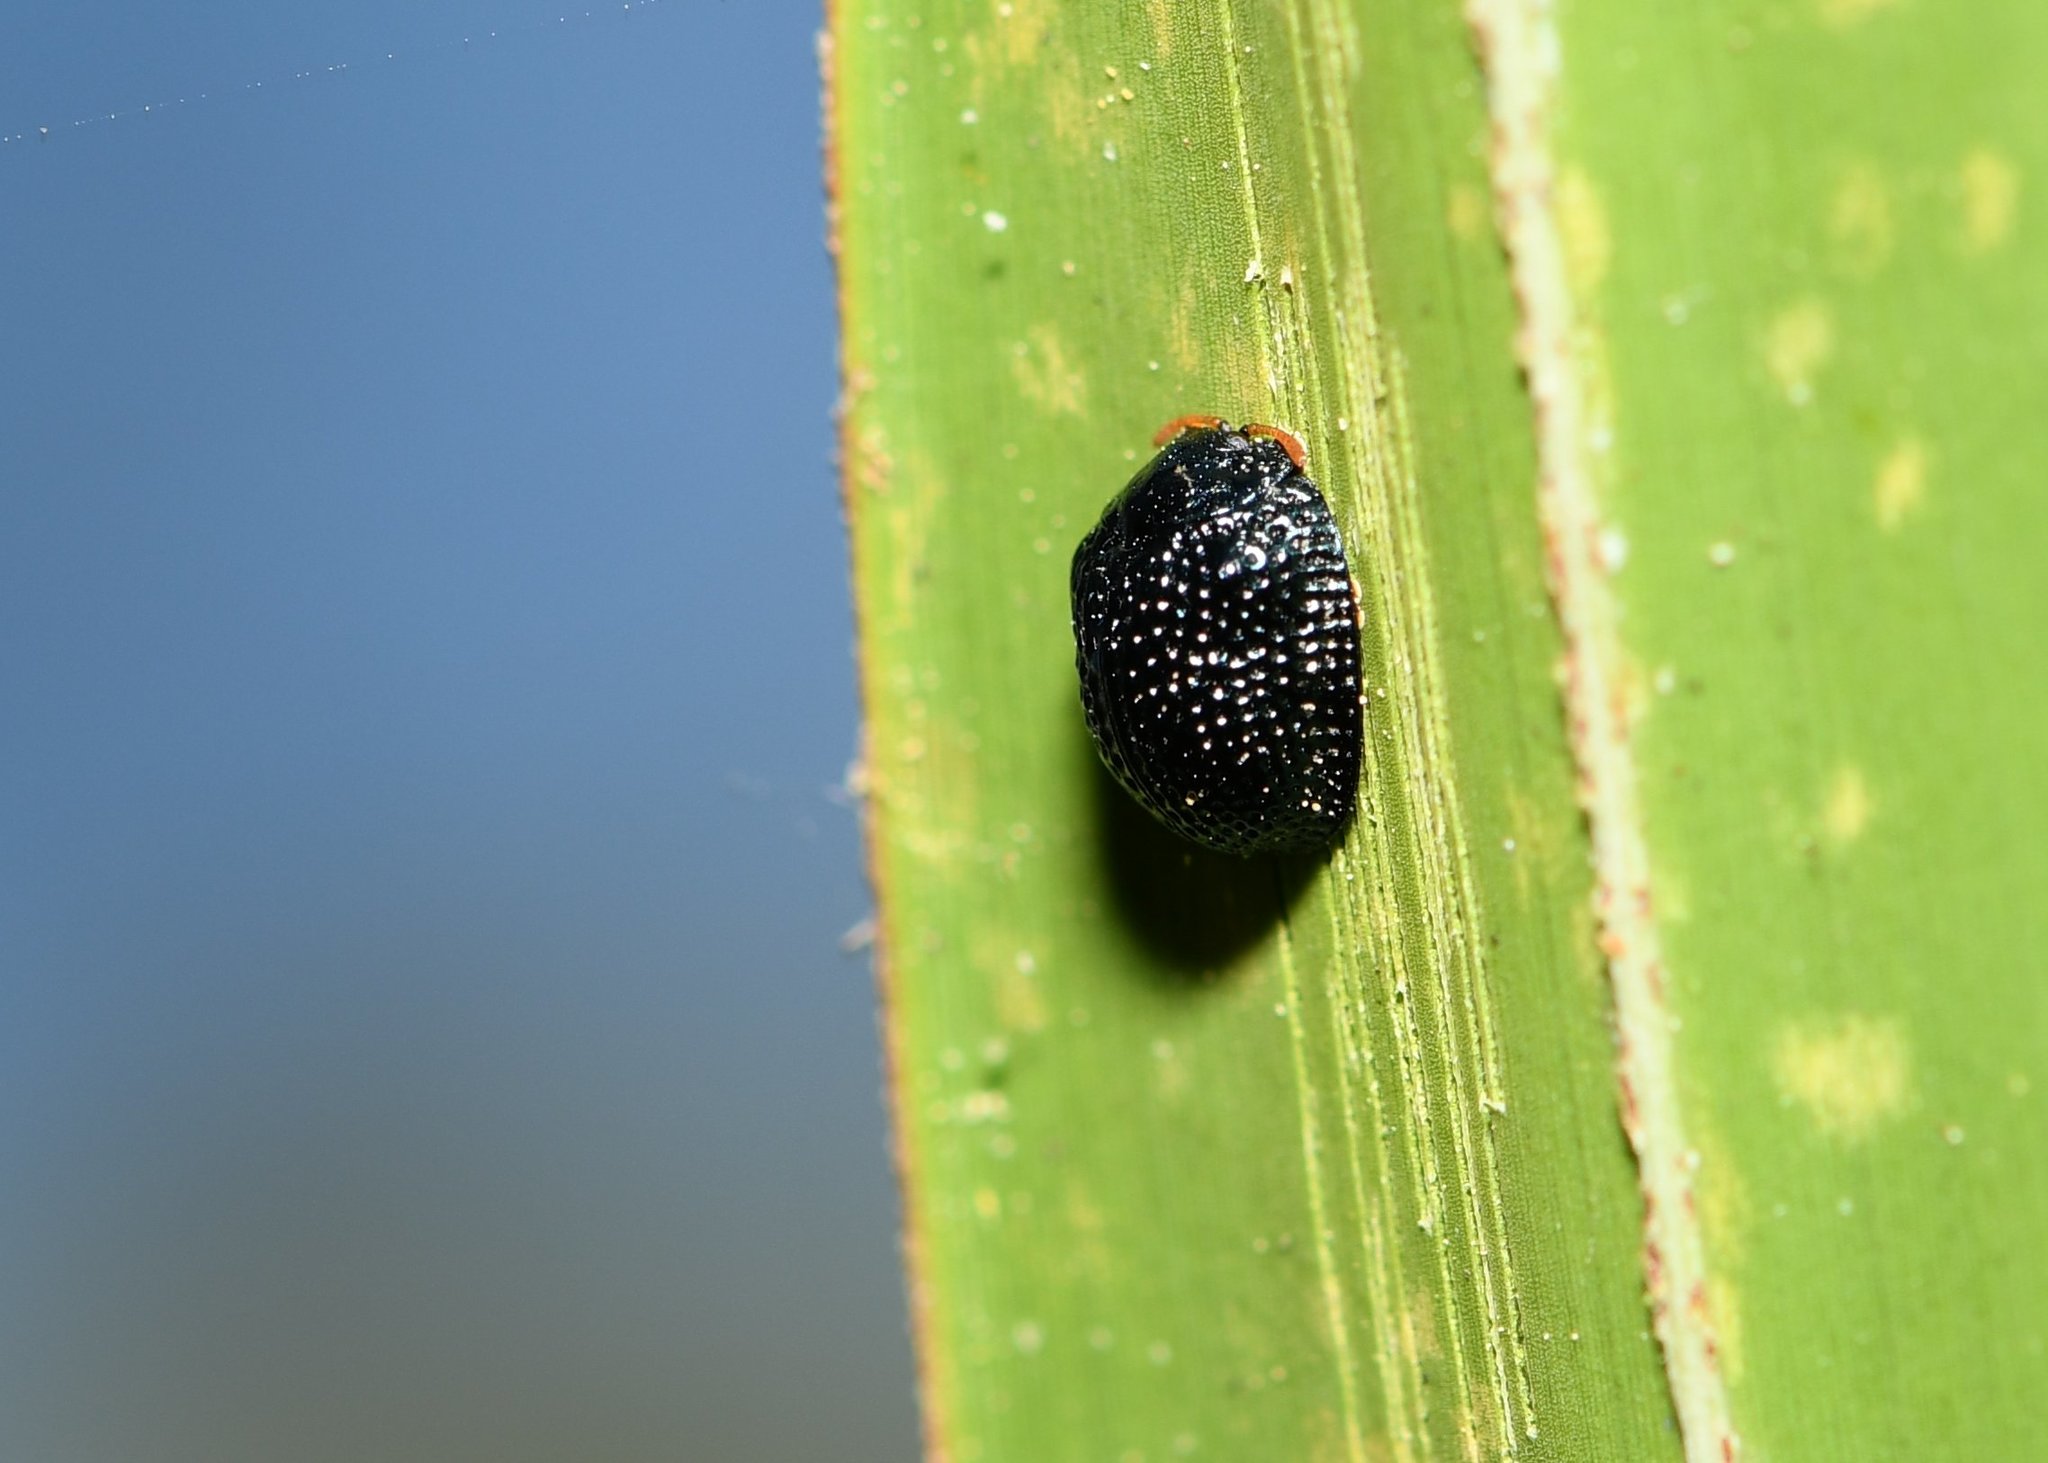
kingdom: Animalia
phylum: Arthropoda
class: Insecta
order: Coleoptera
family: Chrysomelidae
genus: Hemisphaerota
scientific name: Hemisphaerota cyanea
